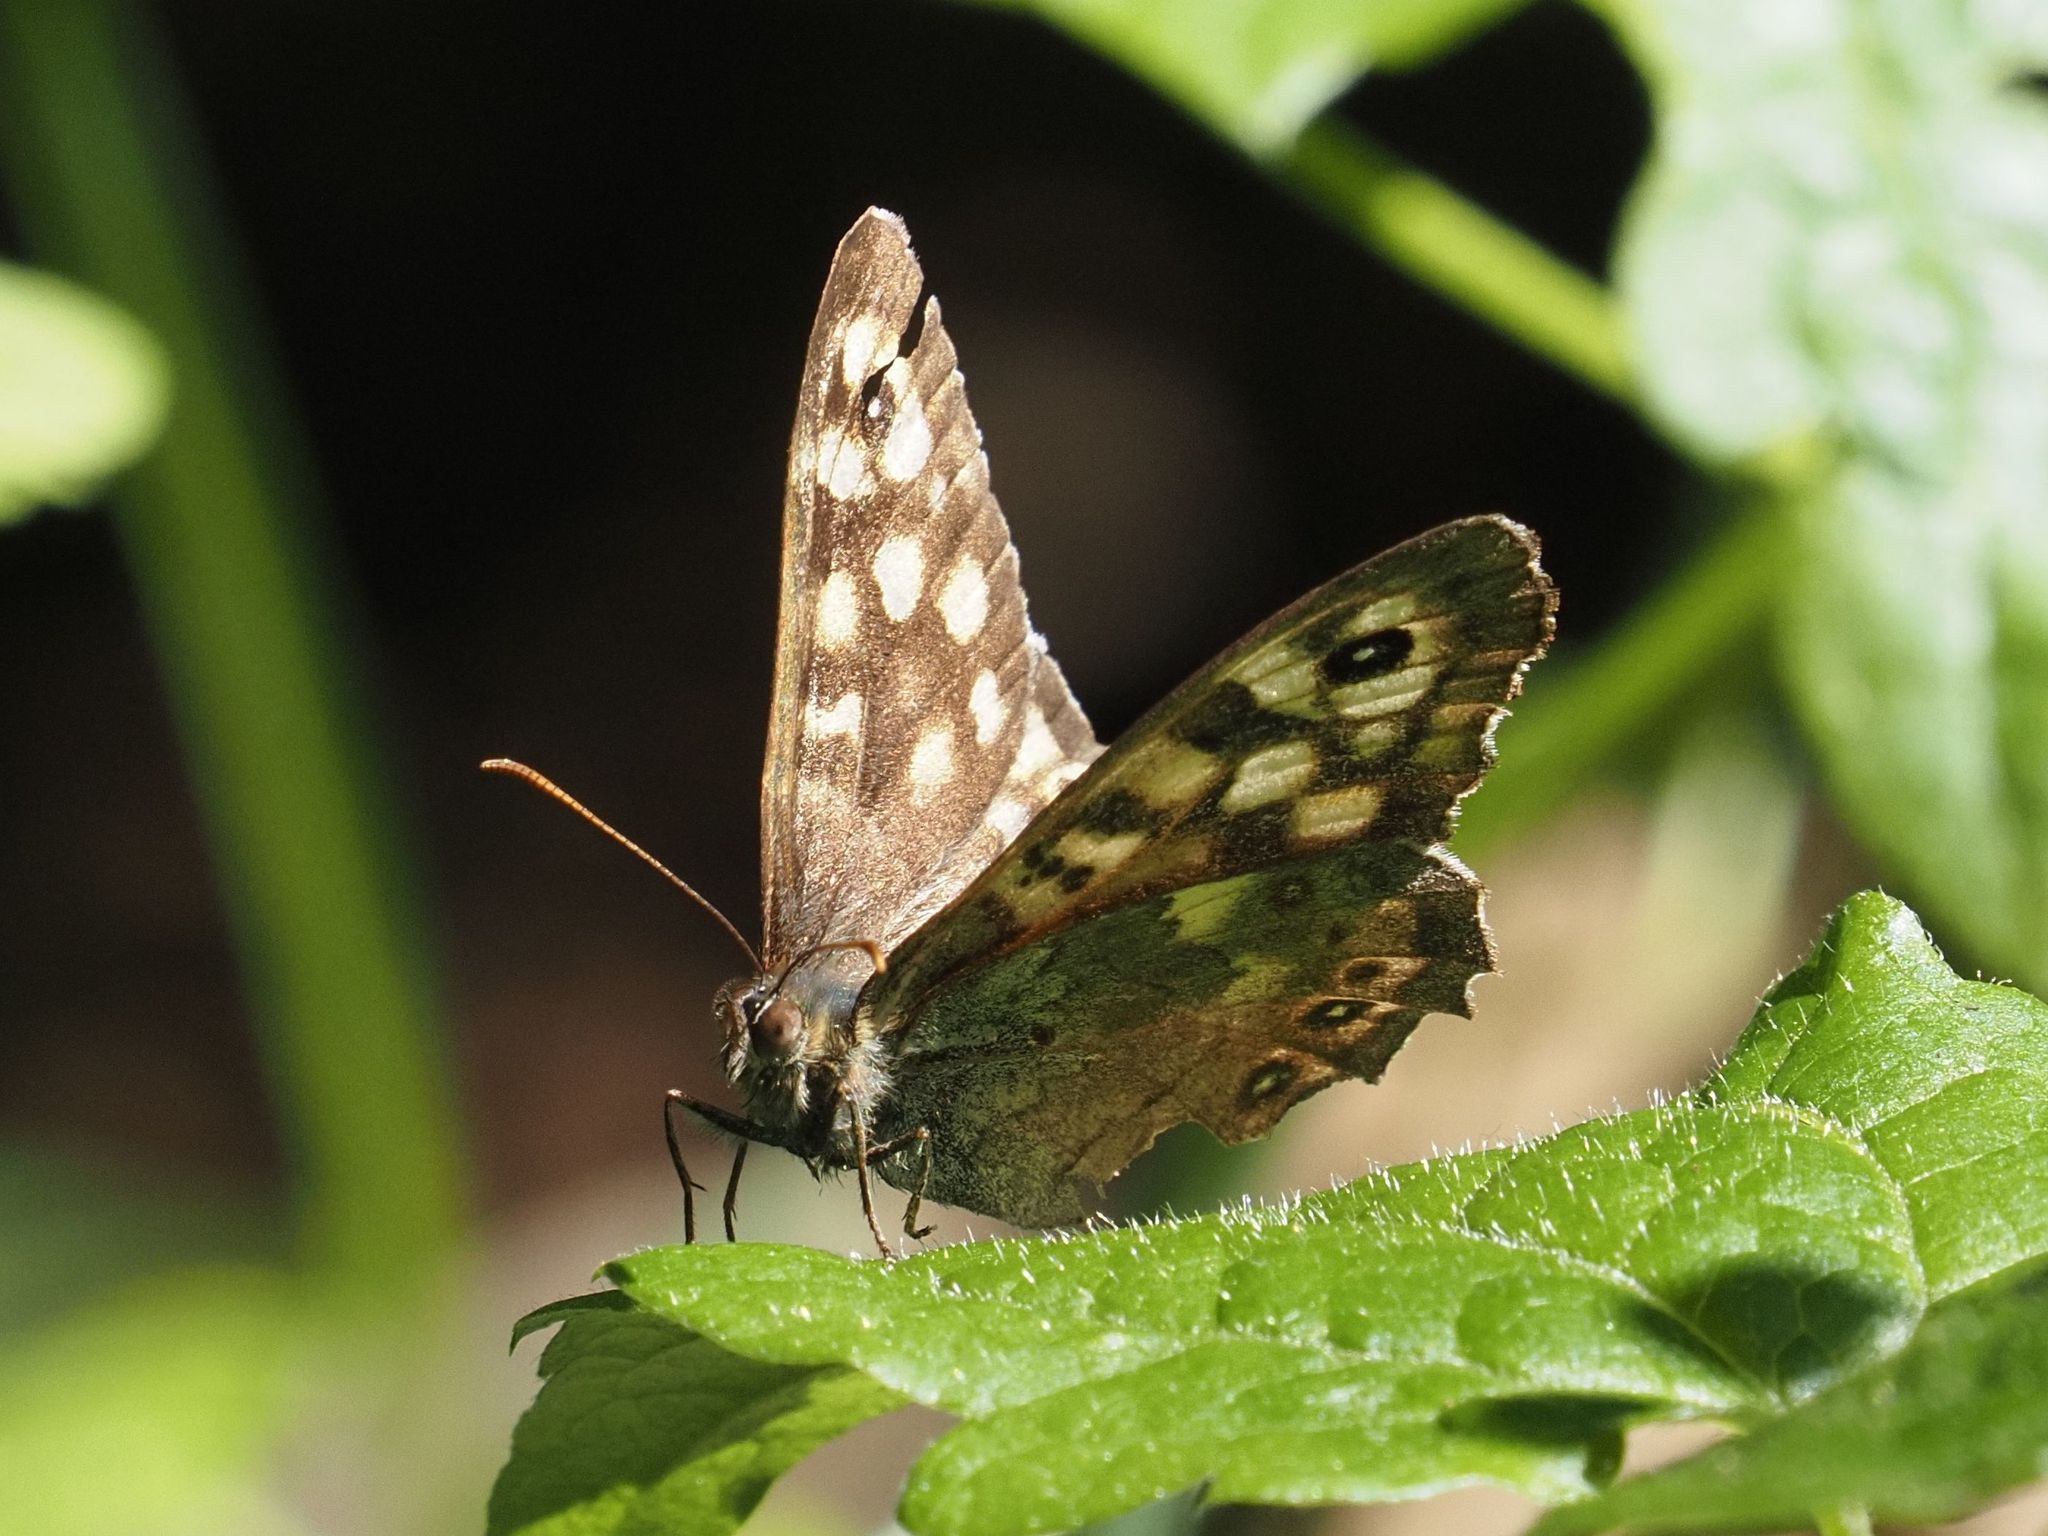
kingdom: Animalia
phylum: Arthropoda
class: Insecta
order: Lepidoptera
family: Nymphalidae
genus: Pararge
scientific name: Pararge aegeria
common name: Speckled wood
